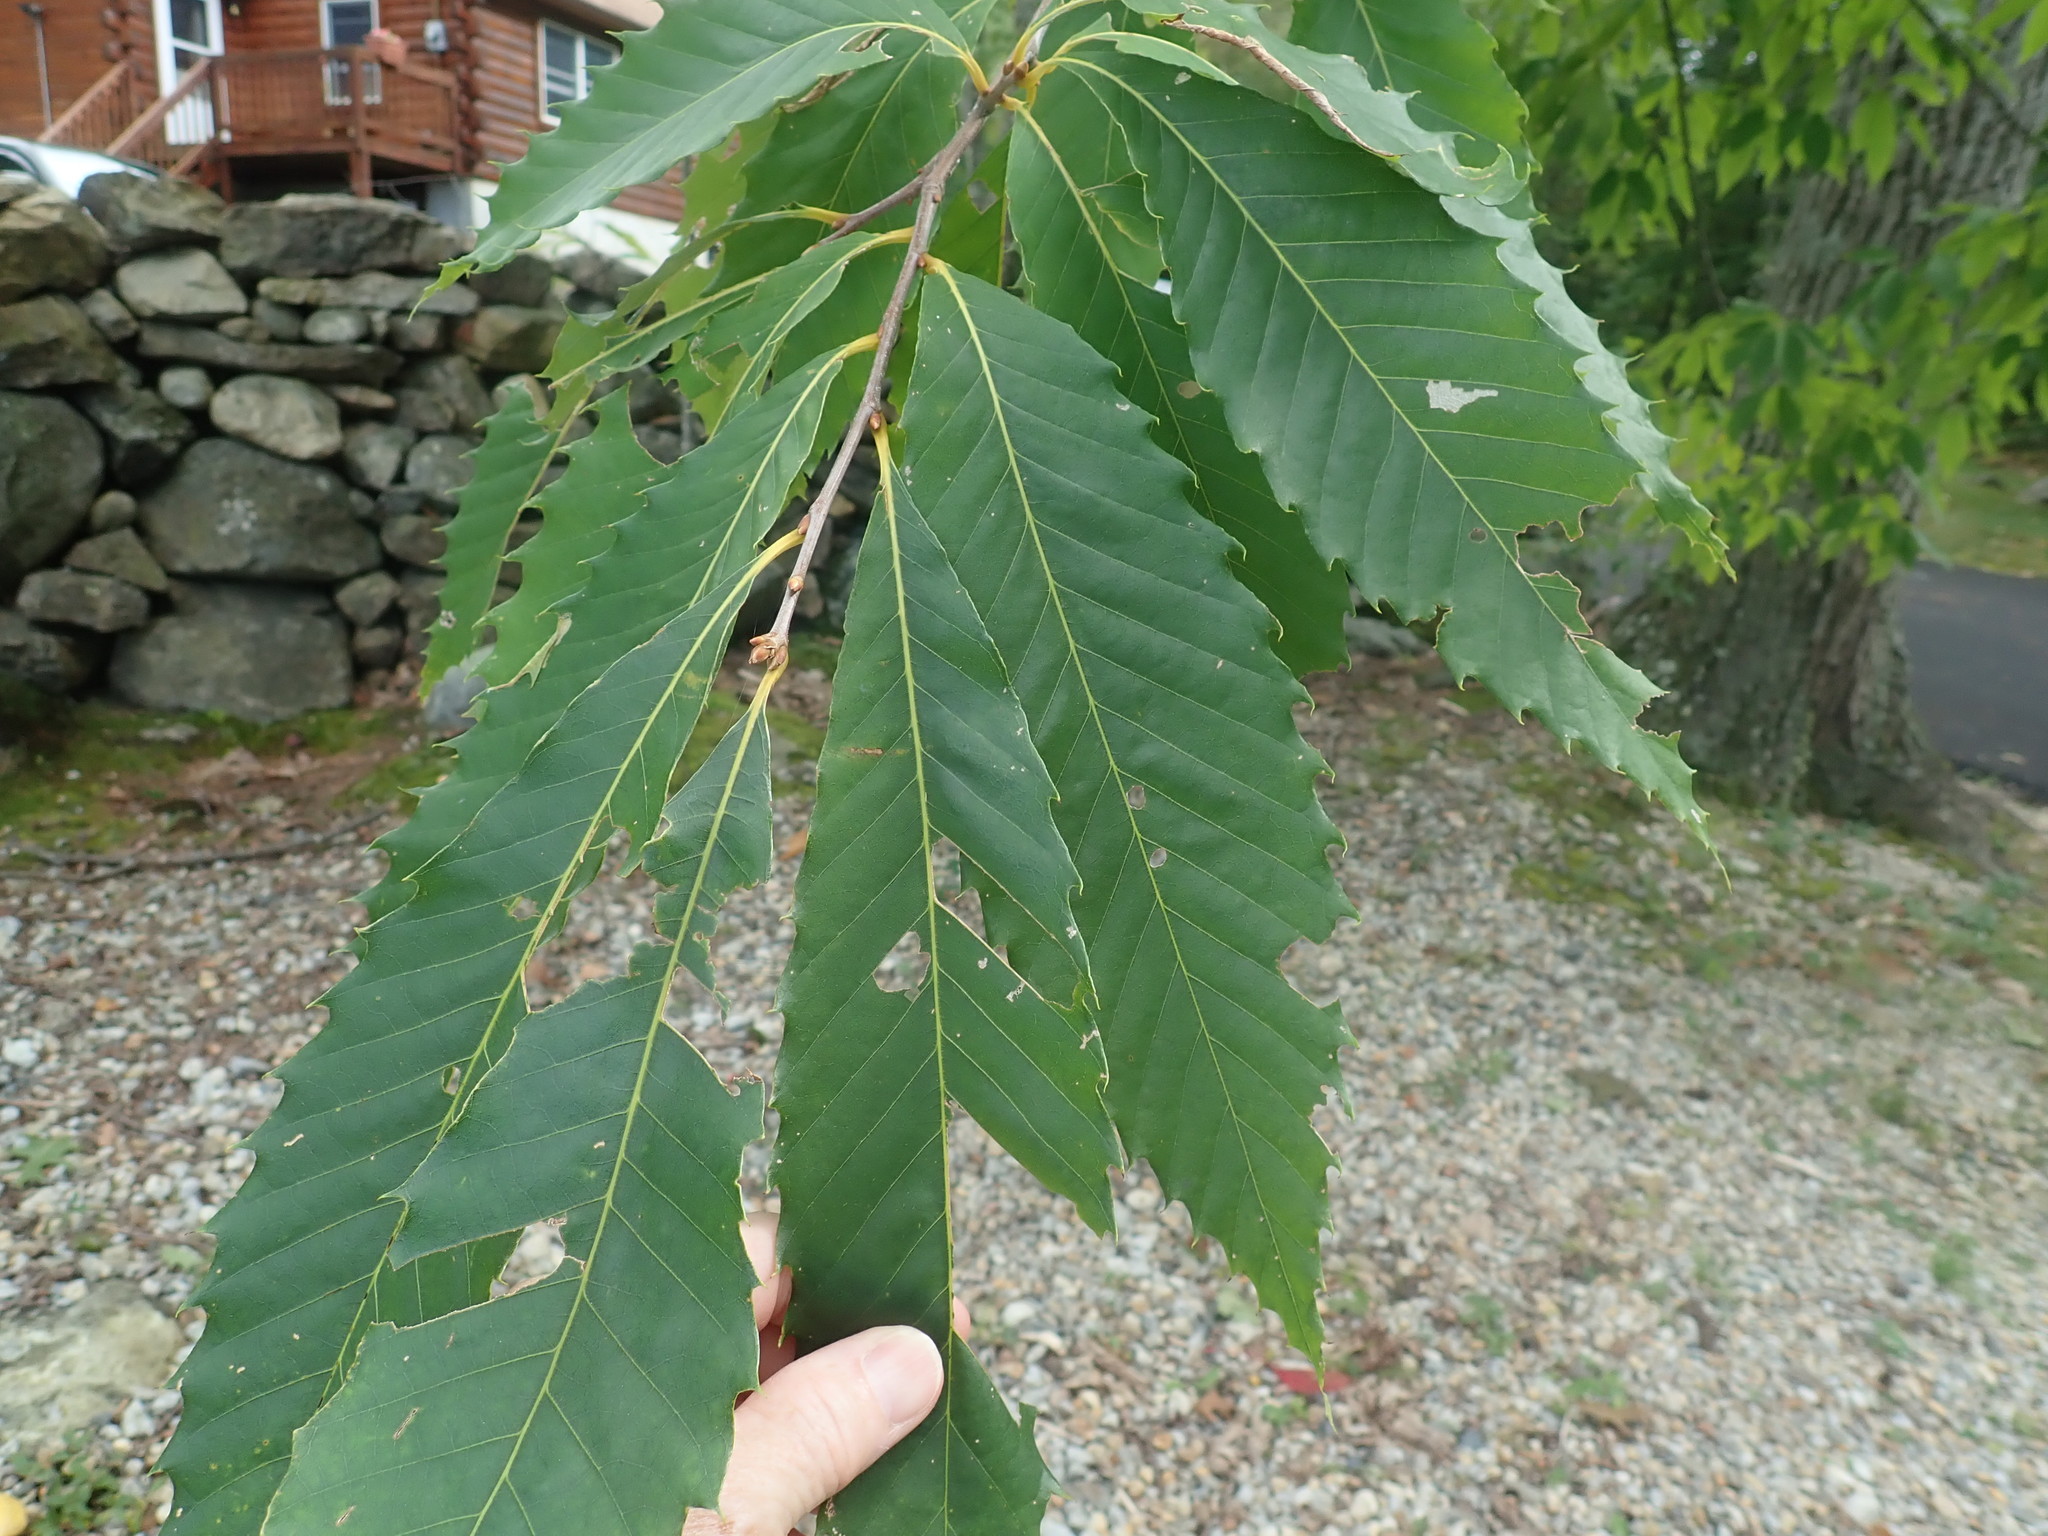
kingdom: Plantae
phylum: Tracheophyta
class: Magnoliopsida
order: Fagales
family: Fagaceae
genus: Castanea
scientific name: Castanea dentata
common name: American chestnut
